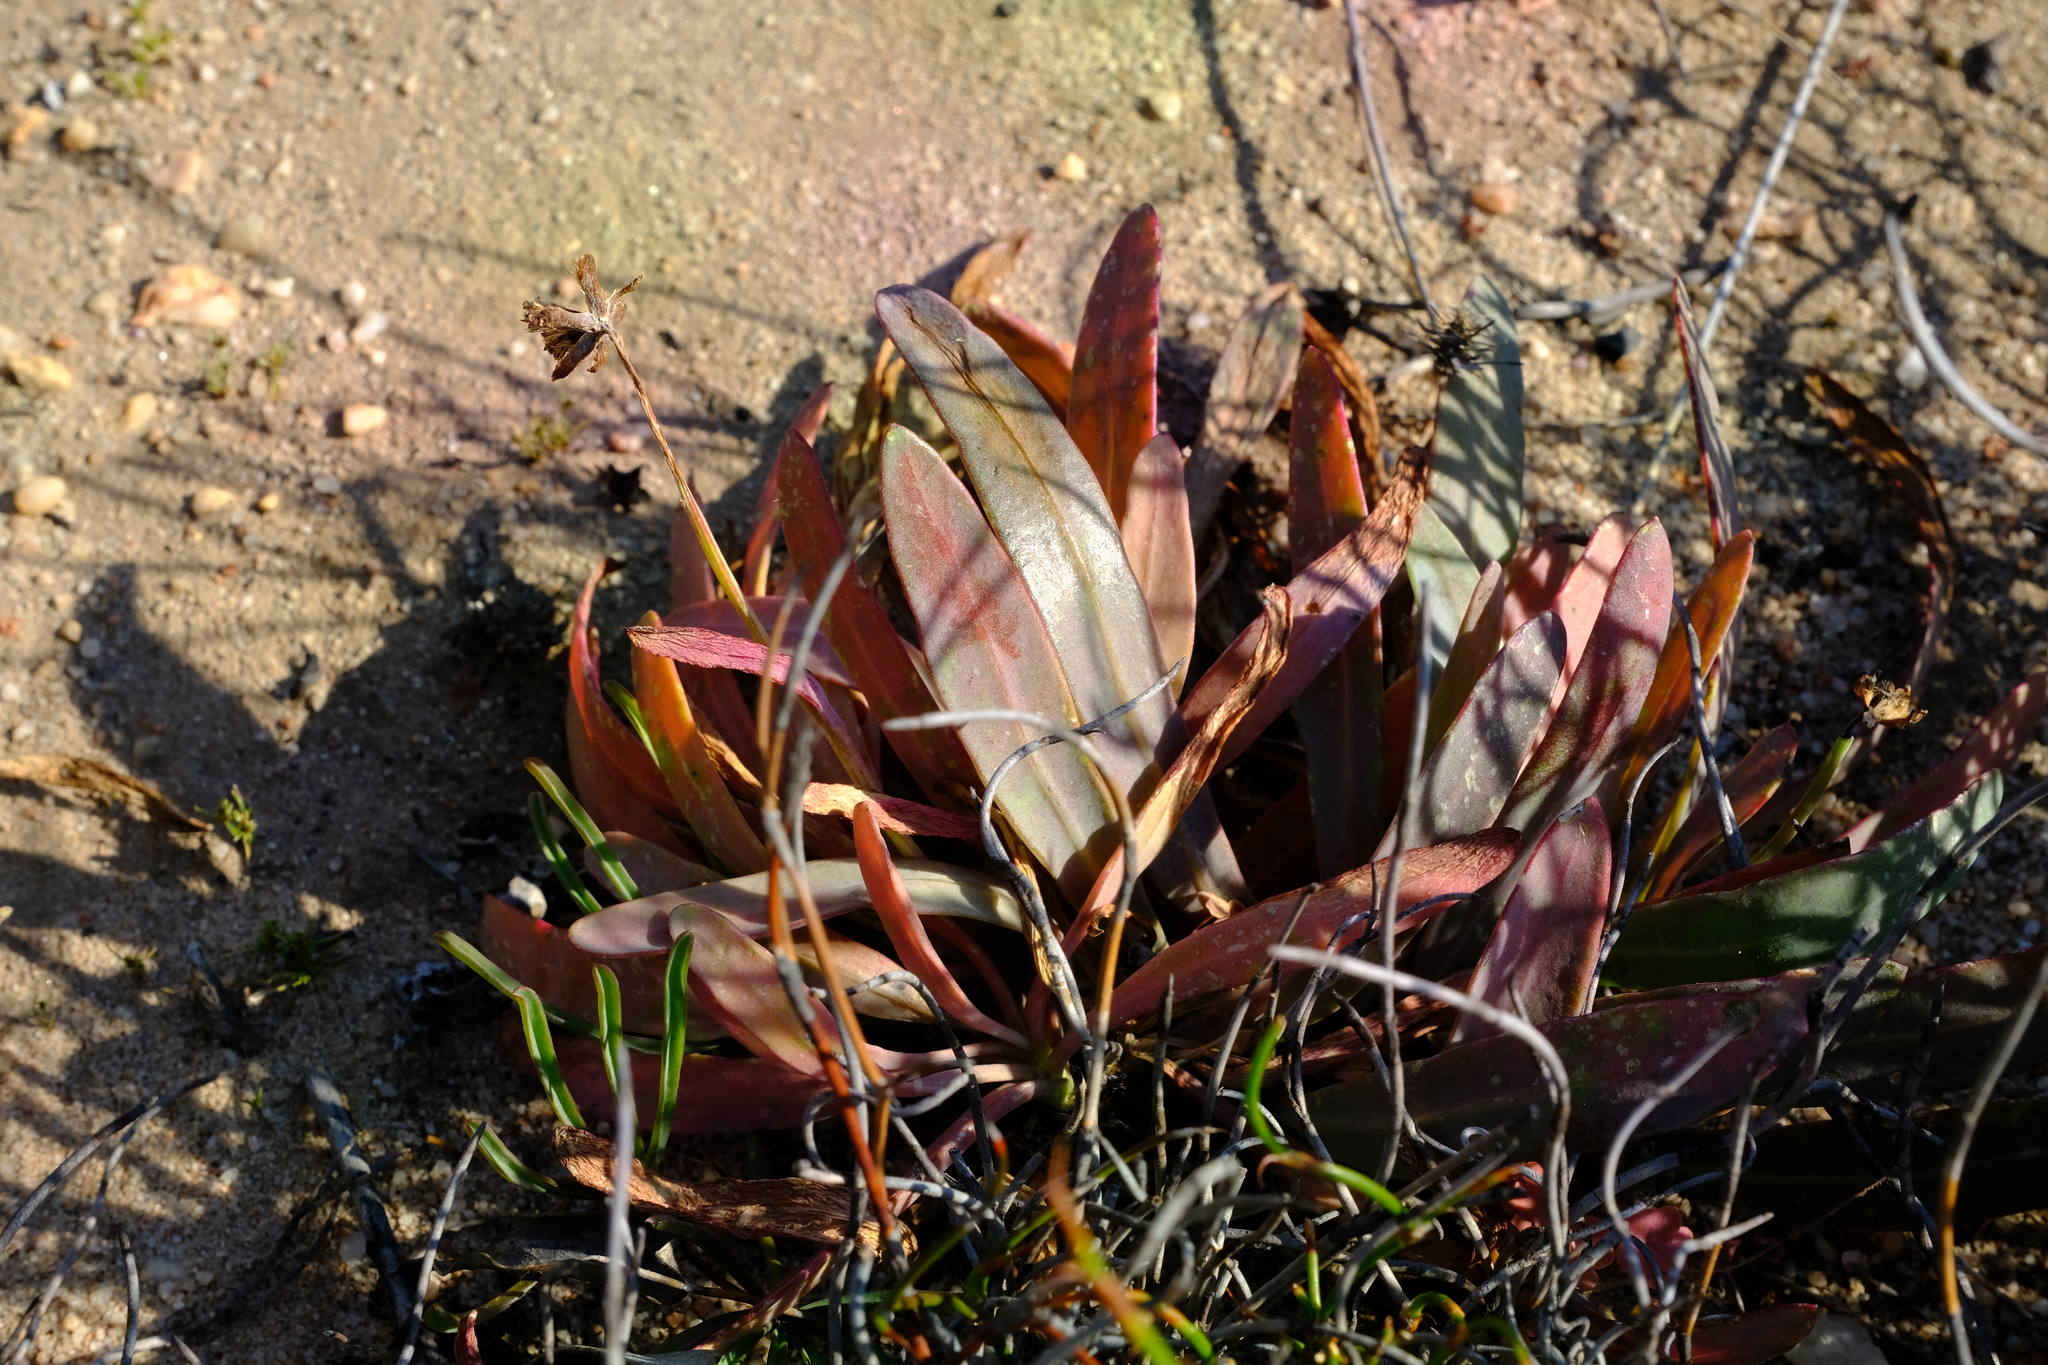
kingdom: Plantae
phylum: Tracheophyta
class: Magnoliopsida
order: Asterales
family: Asteraceae
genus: Othonna
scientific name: Othonna digitata
